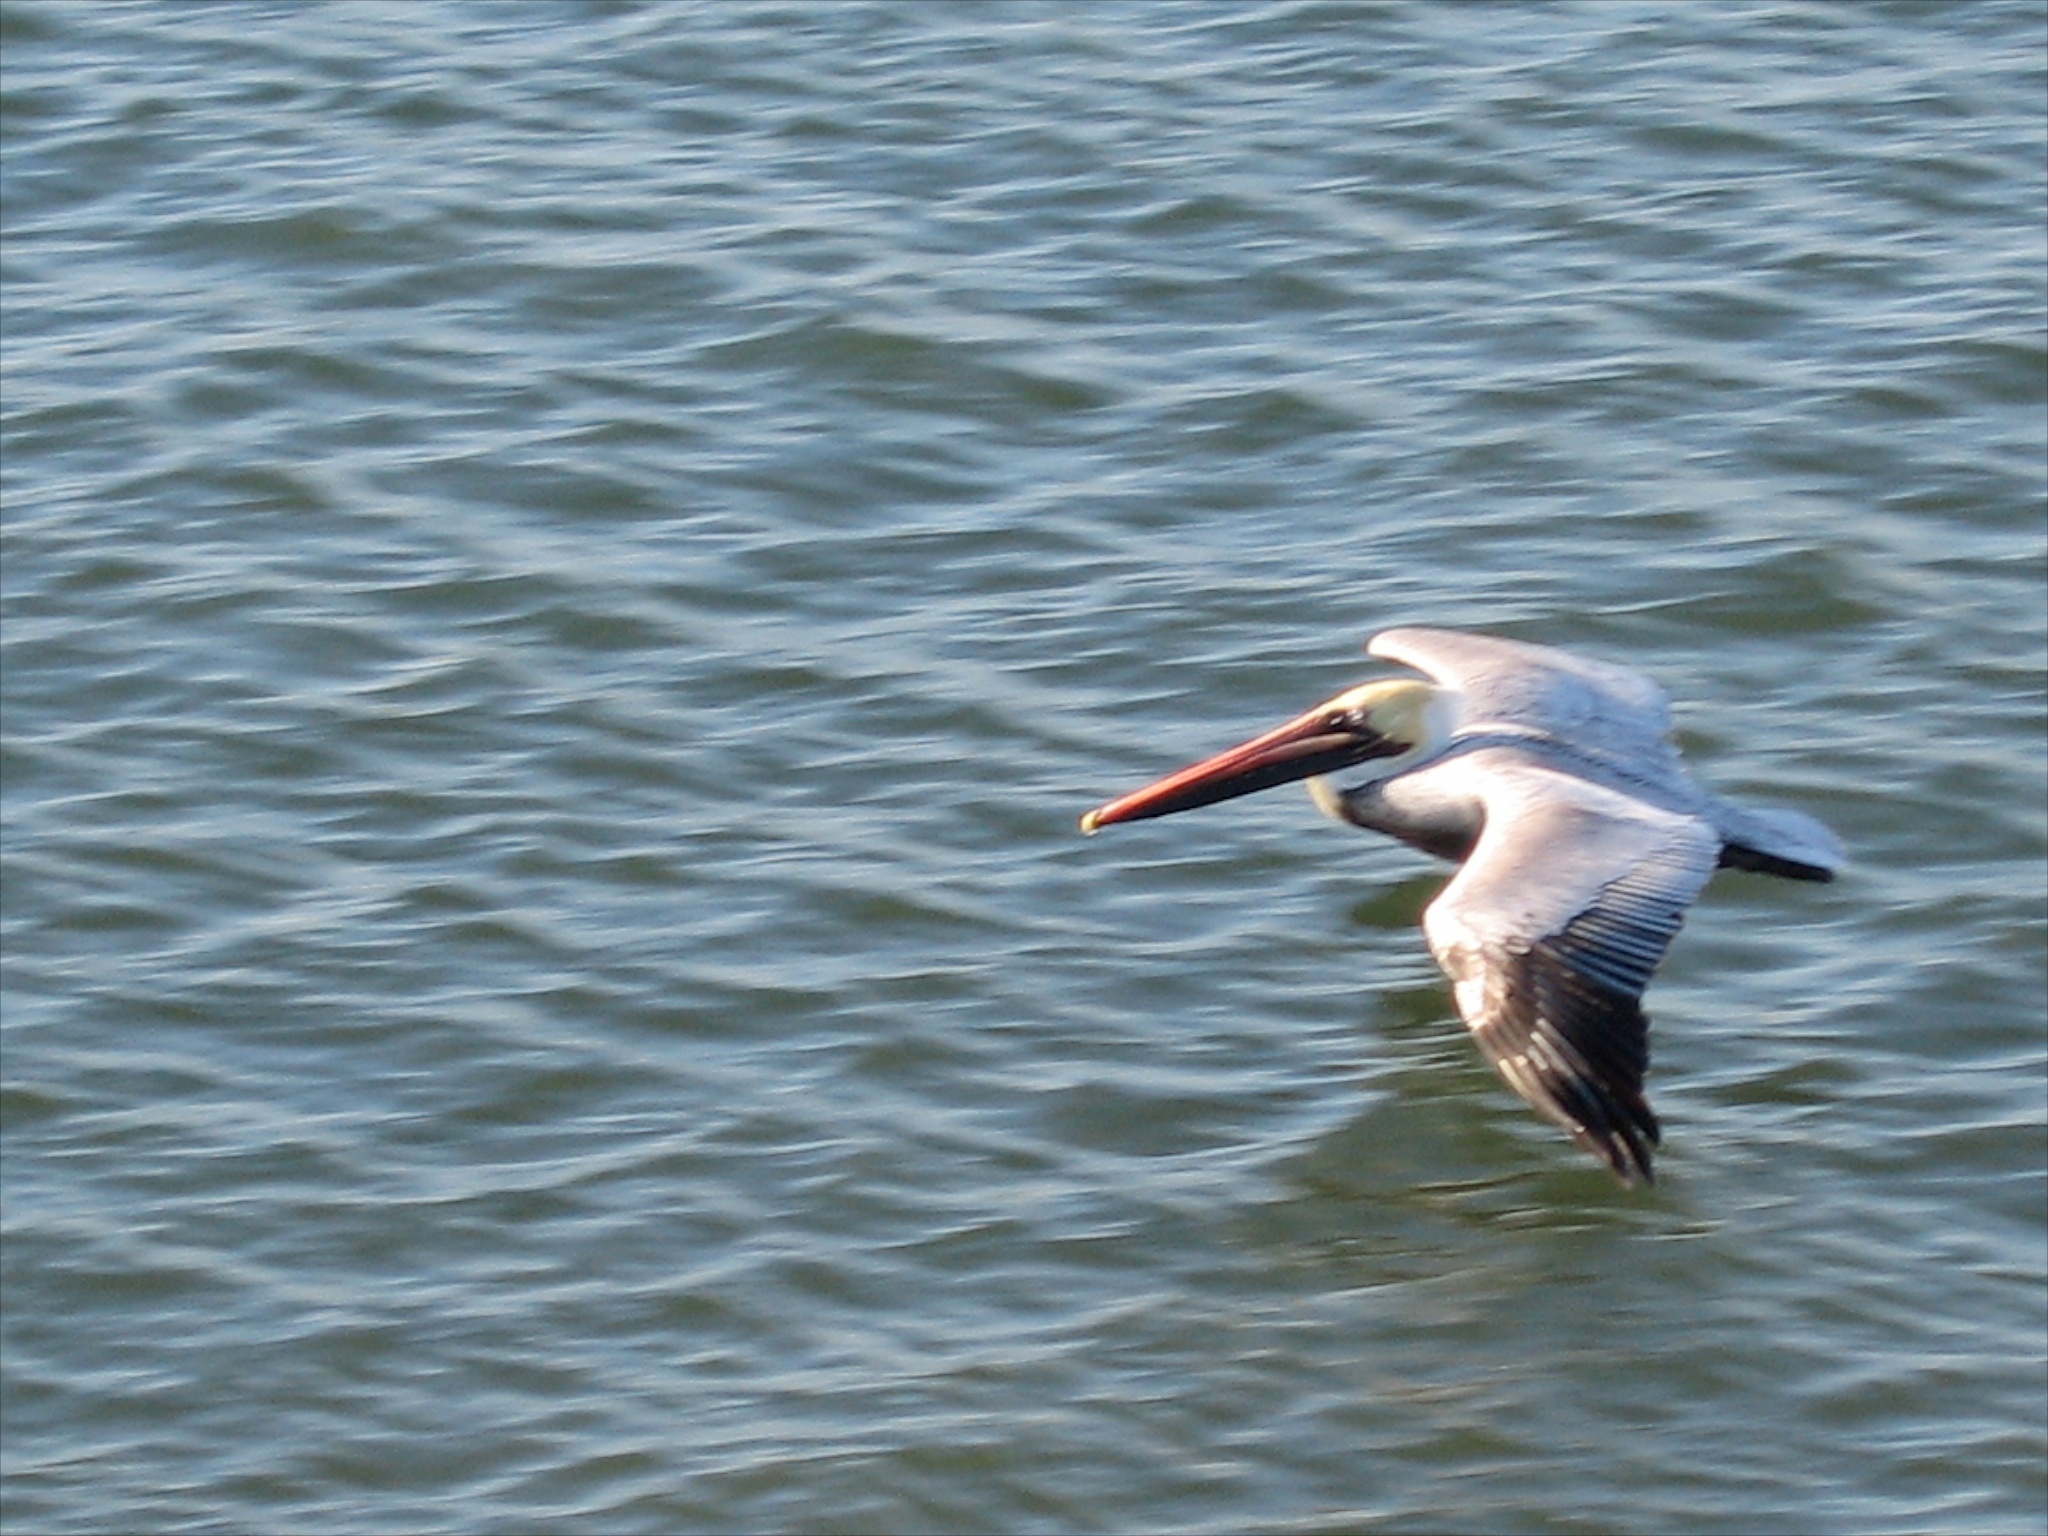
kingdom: Animalia
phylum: Chordata
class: Aves
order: Pelecaniformes
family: Pelecanidae
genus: Pelecanus
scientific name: Pelecanus occidentalis
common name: Brown pelican
